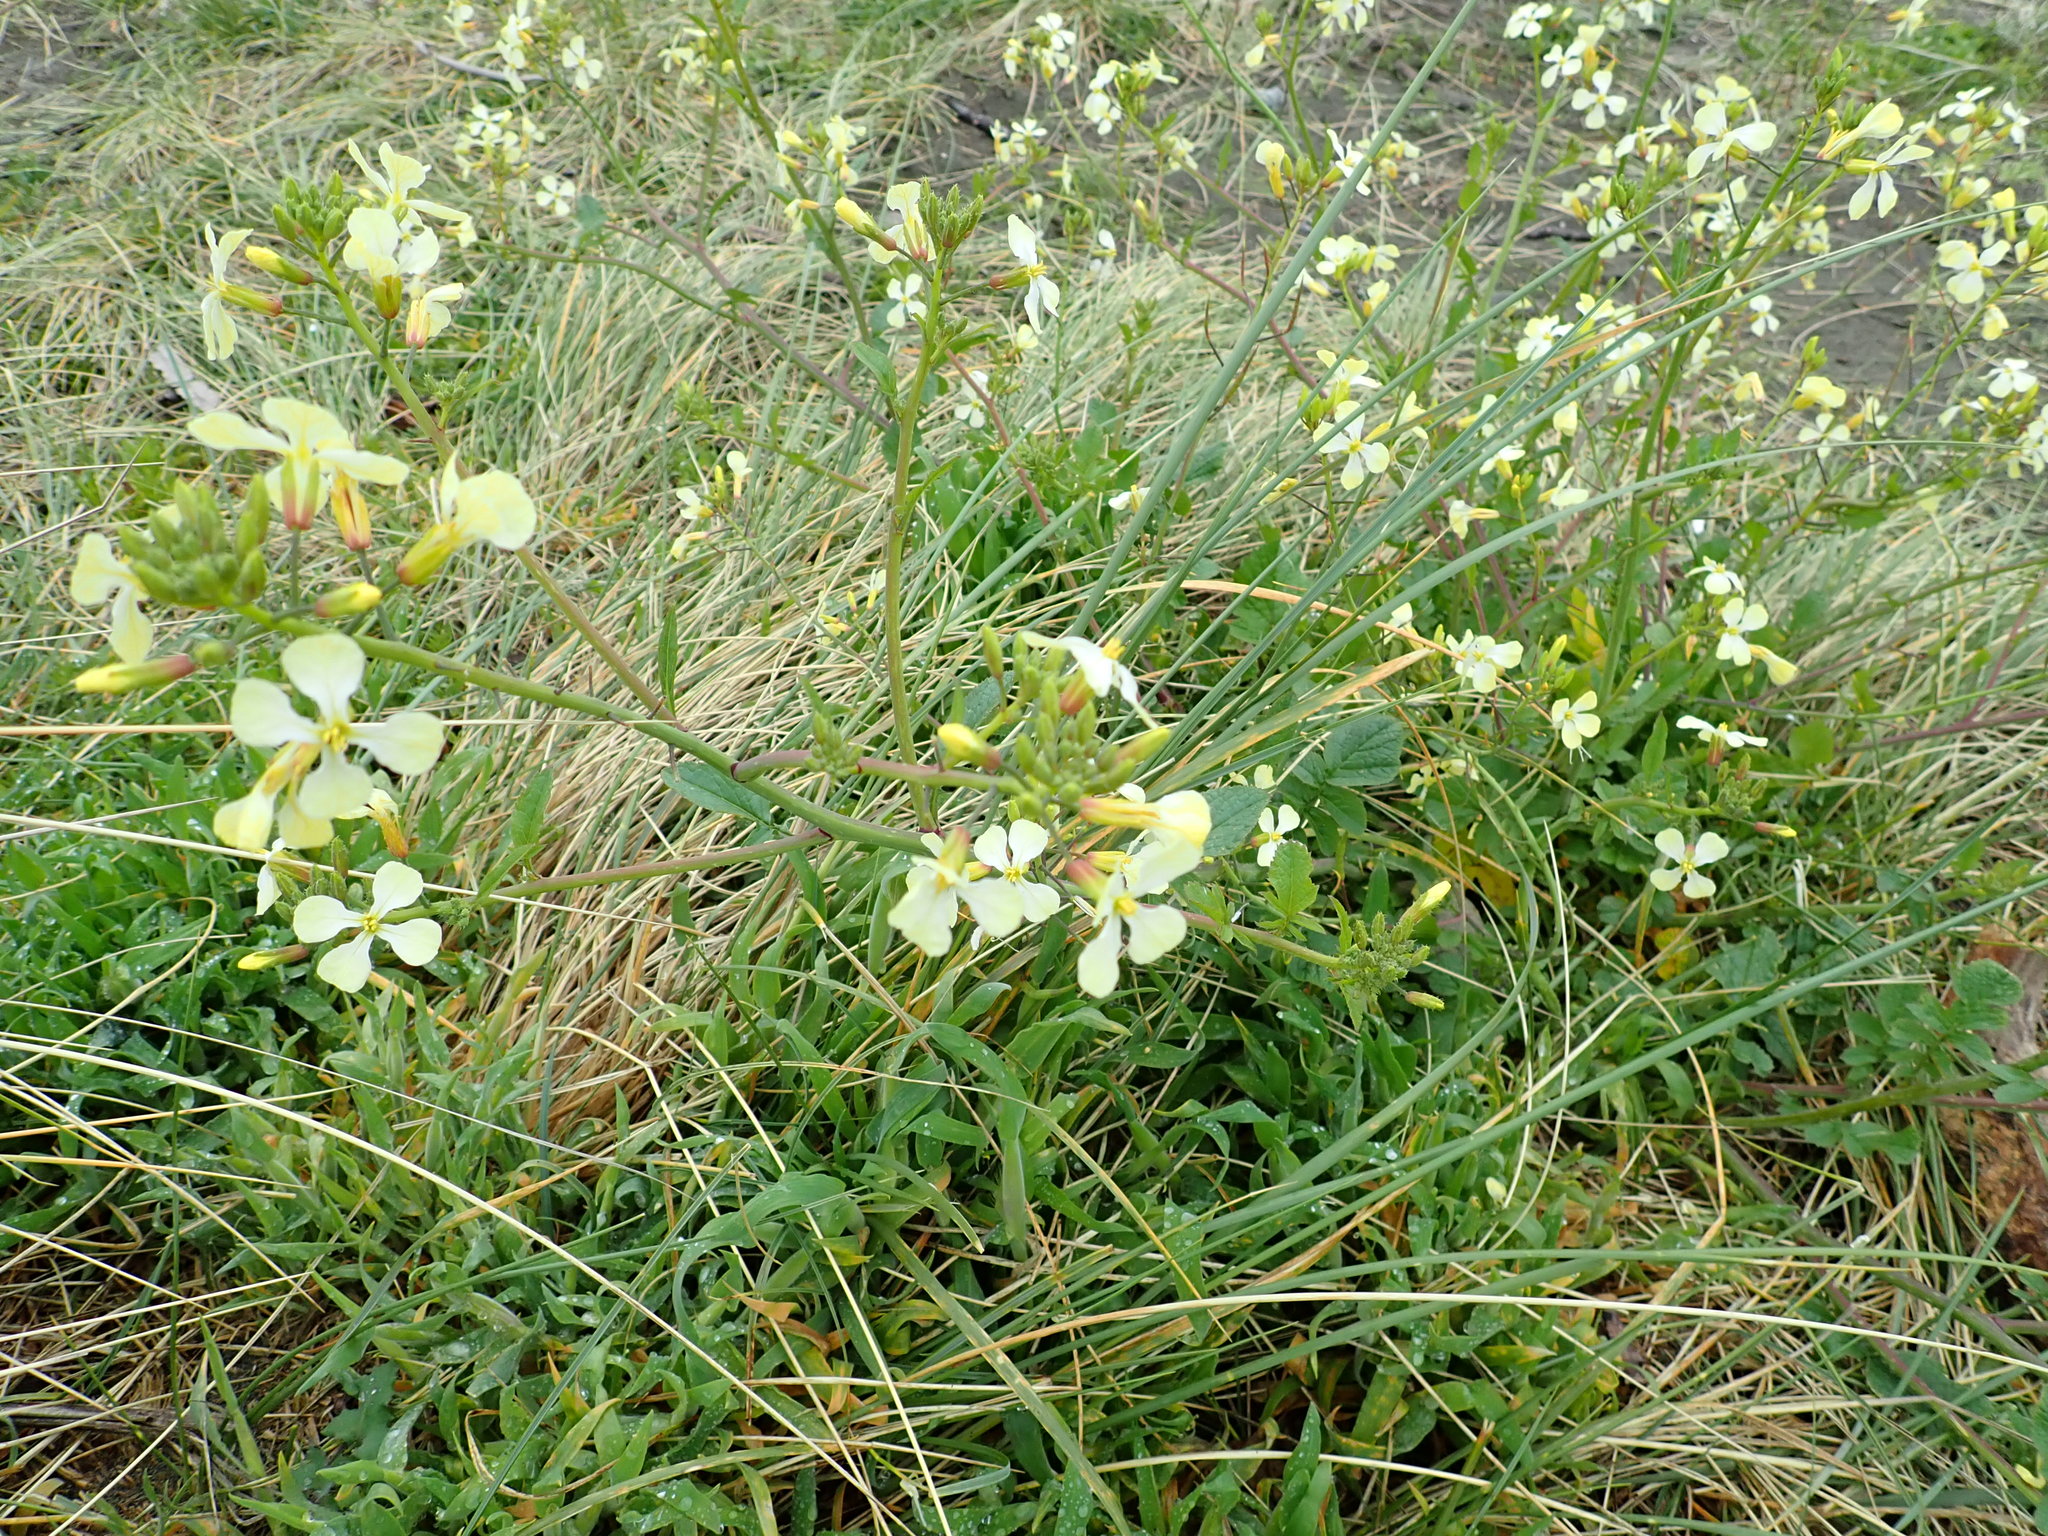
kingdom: Plantae
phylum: Tracheophyta
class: Magnoliopsida
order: Brassicales
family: Brassicaceae
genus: Raphanus
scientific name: Raphanus raphanistrum
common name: Wild radish
